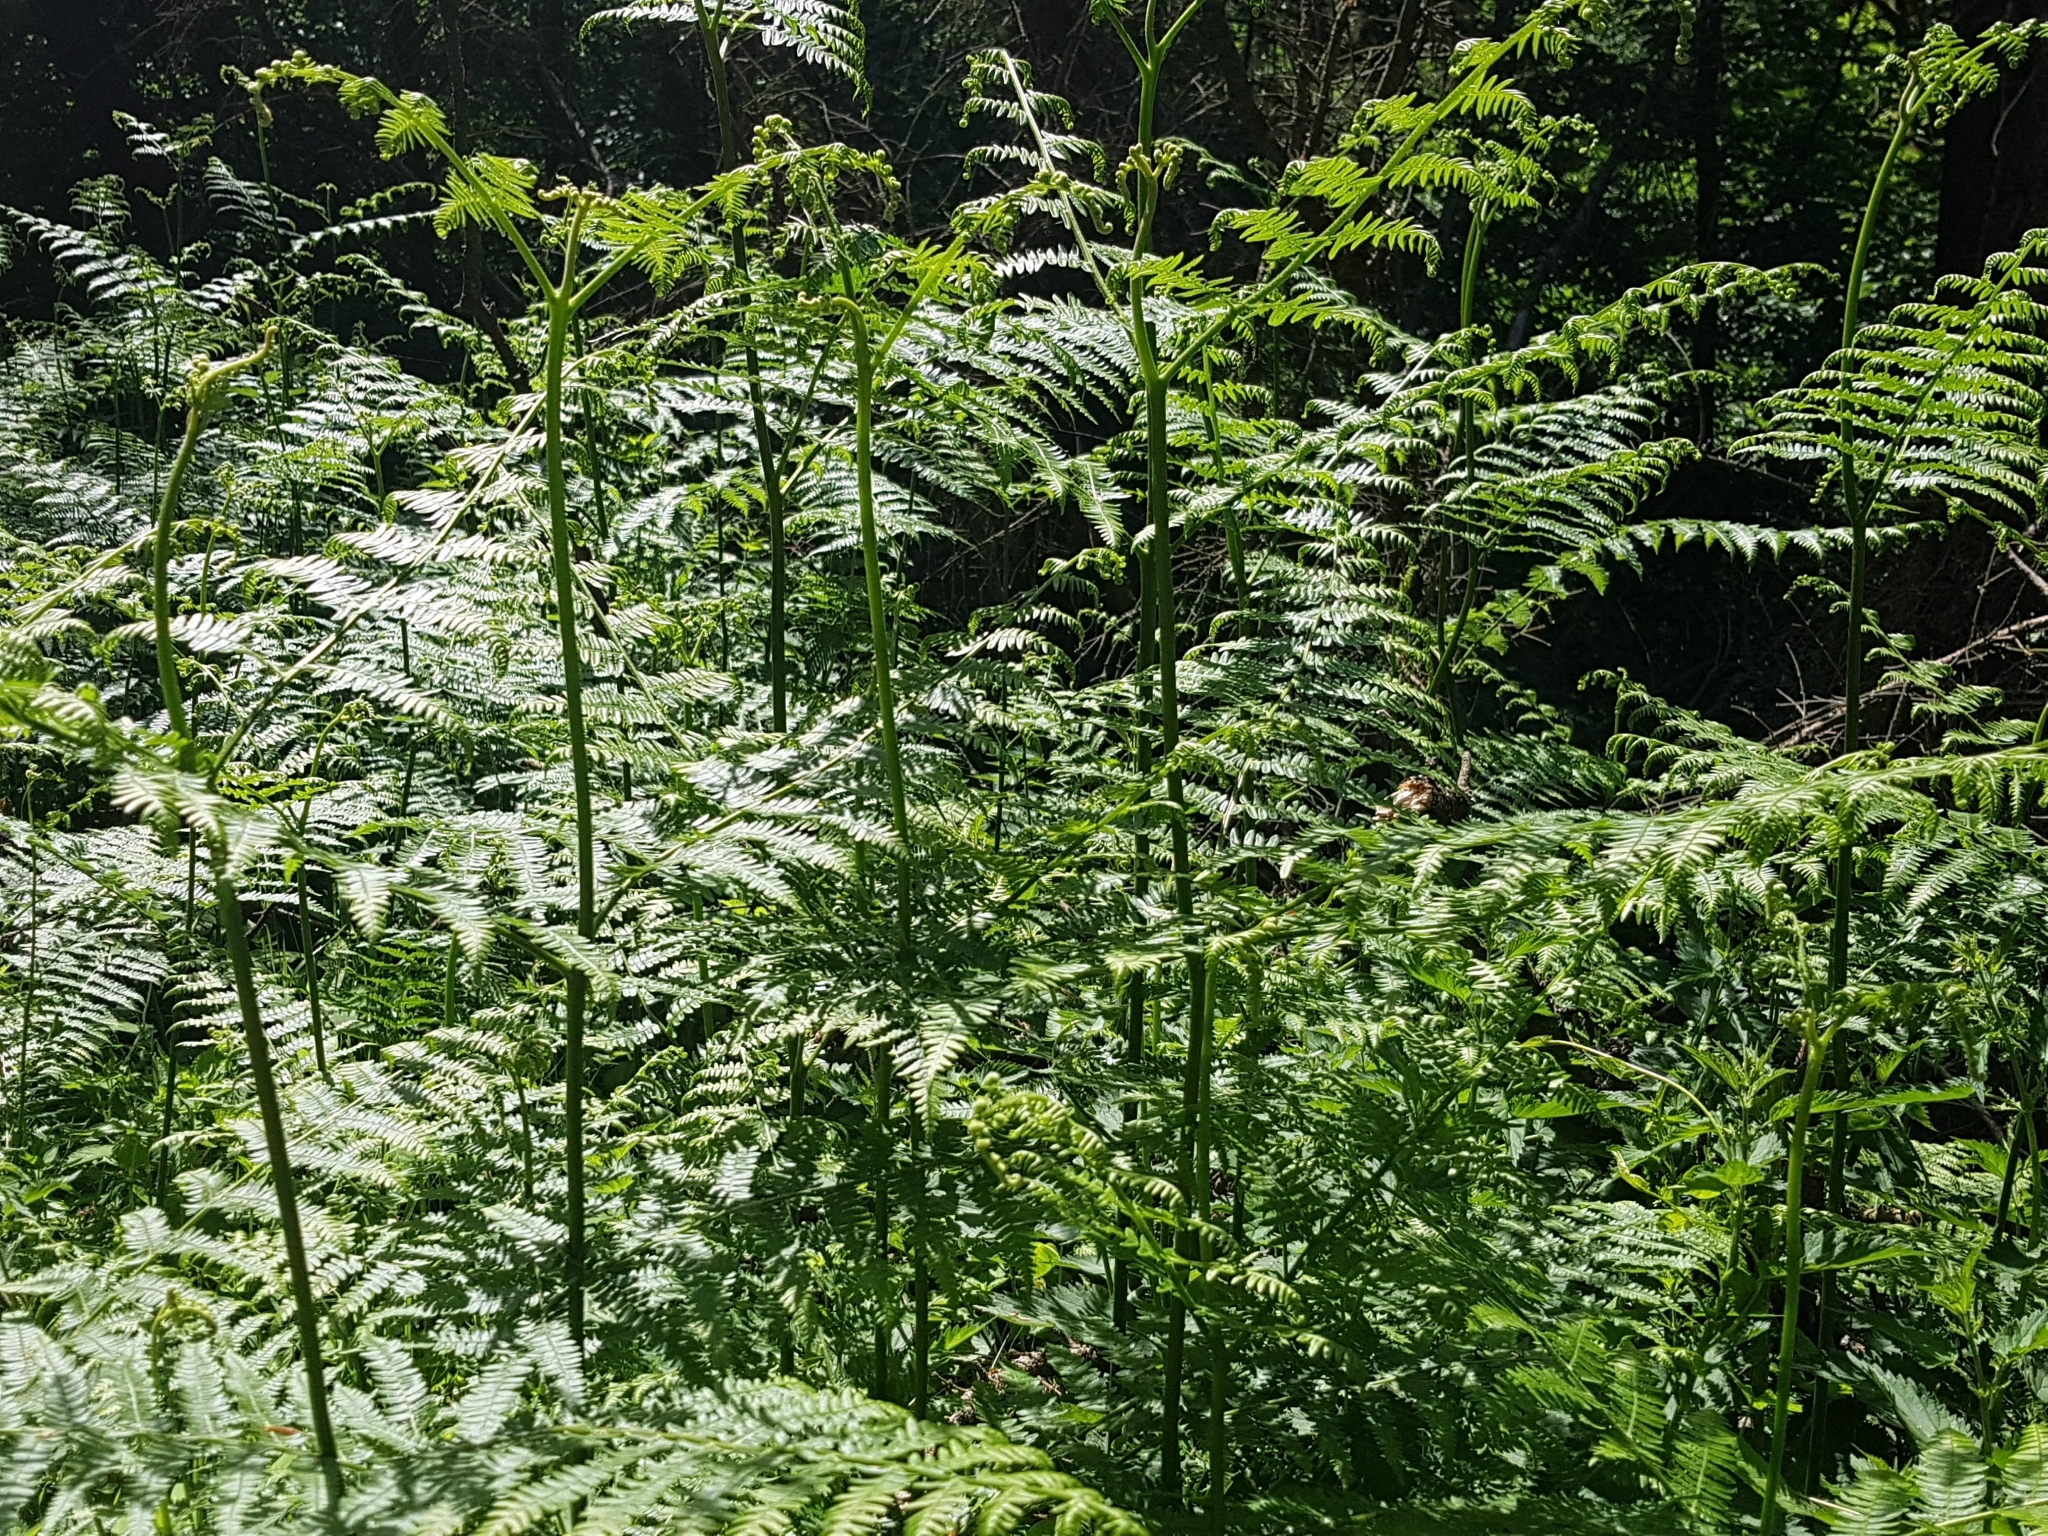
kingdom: Plantae
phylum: Tracheophyta
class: Polypodiopsida
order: Polypodiales
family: Dennstaedtiaceae
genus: Pteridium
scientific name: Pteridium aquilinum
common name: Bracken
